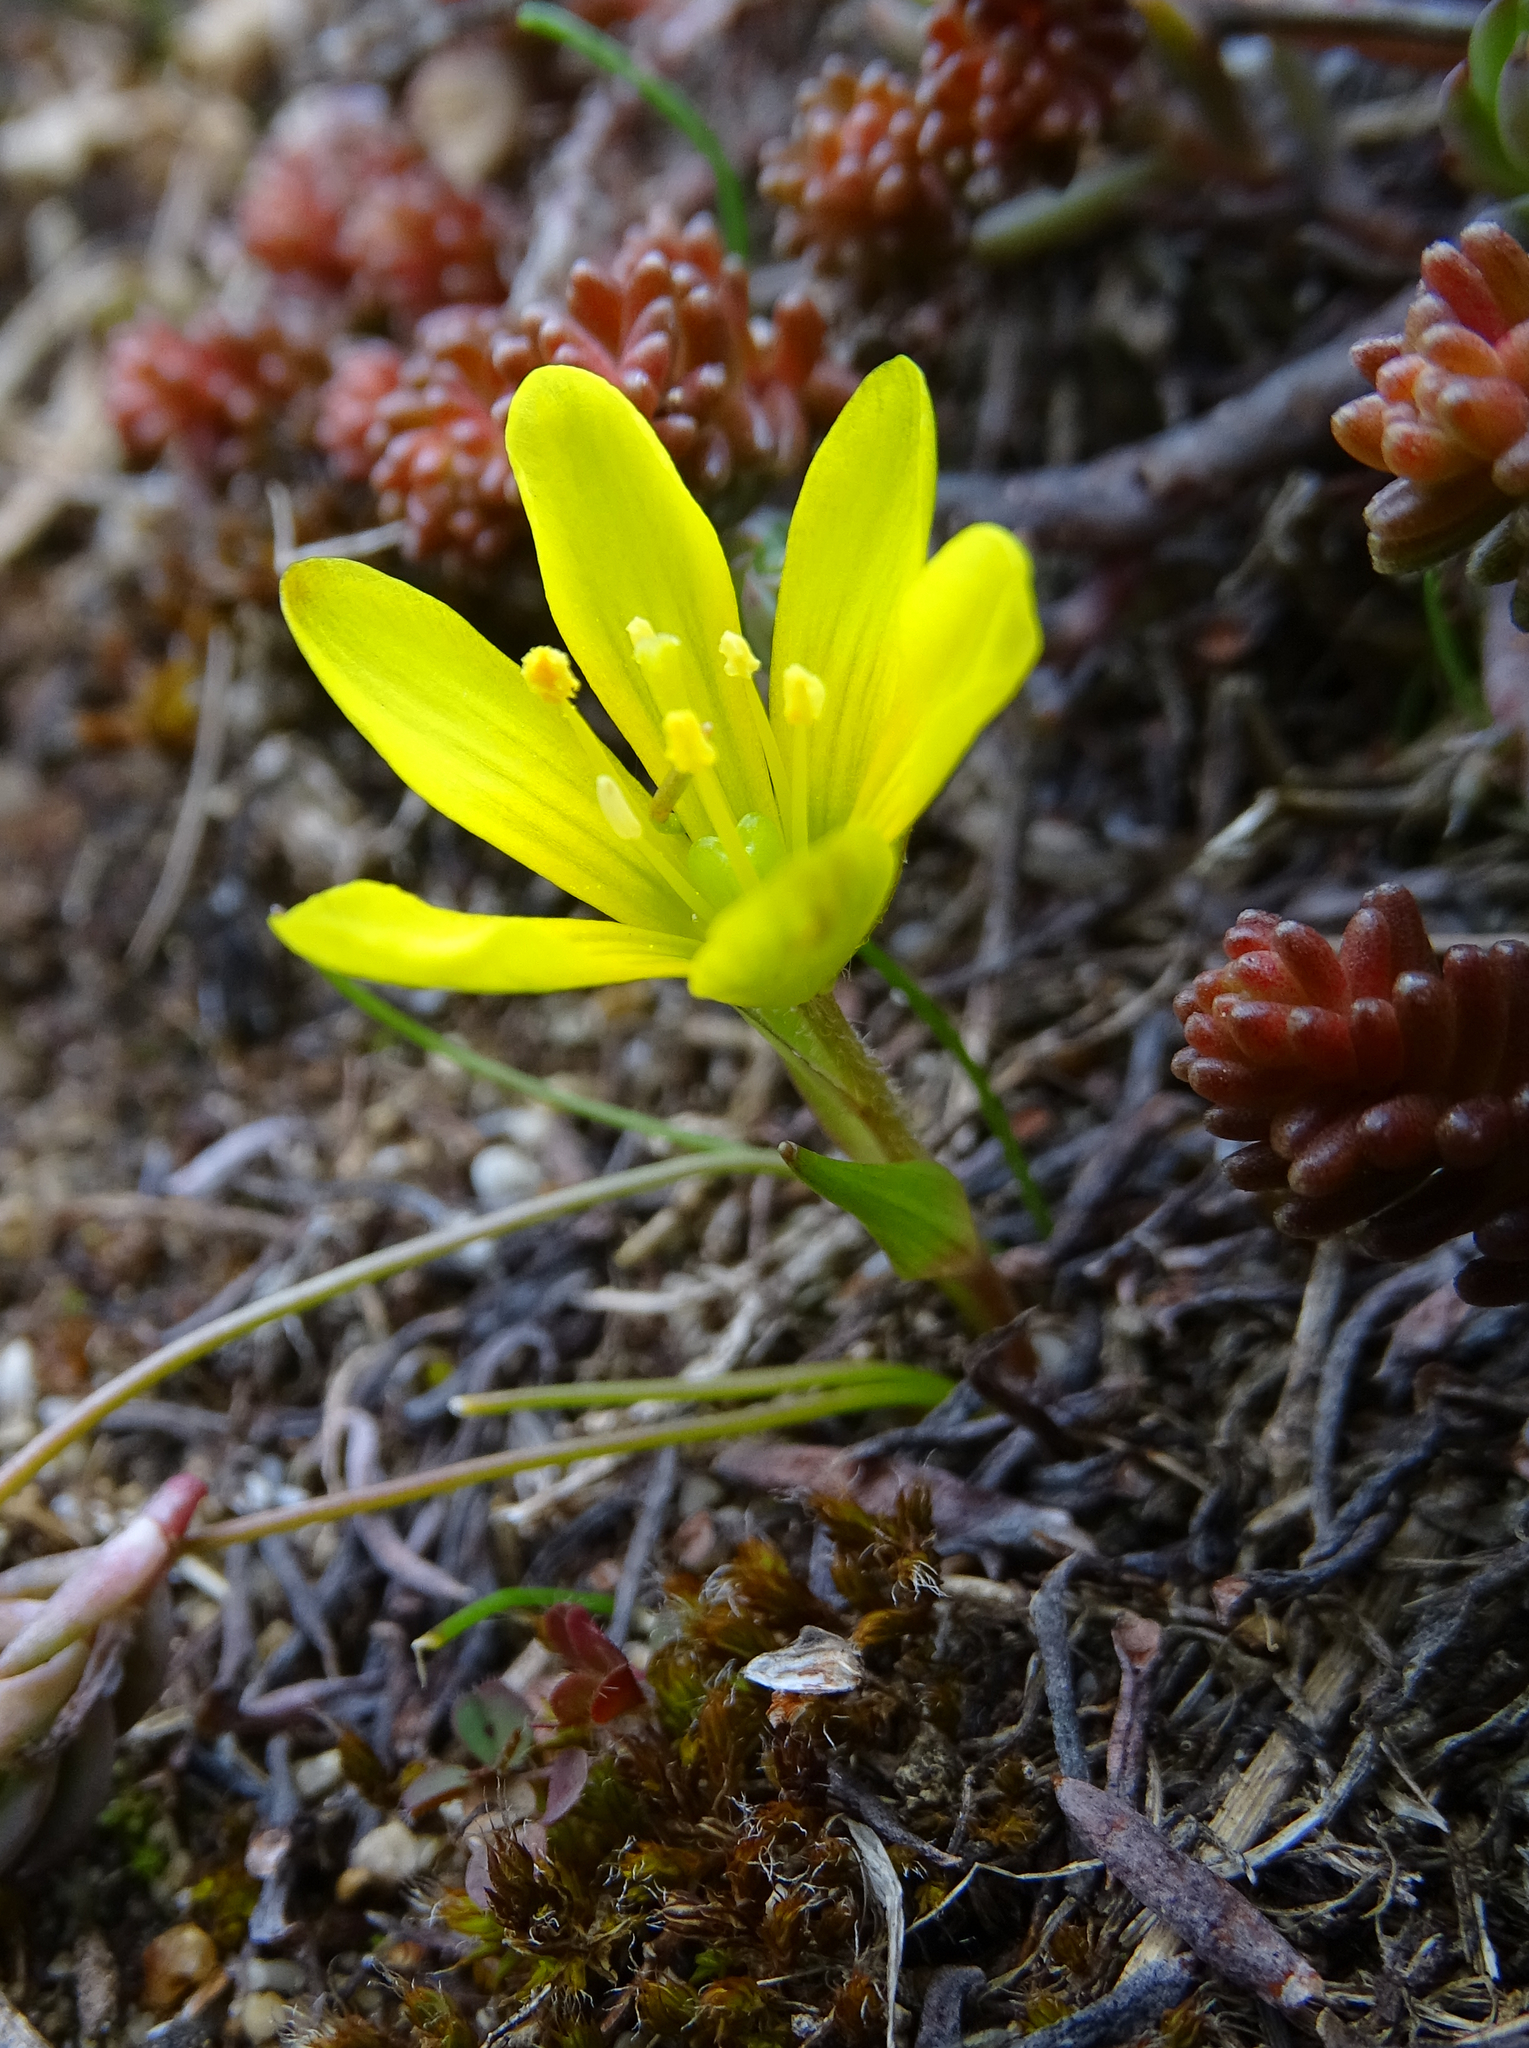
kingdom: Plantae
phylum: Tracheophyta
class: Liliopsida
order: Liliales
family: Liliaceae
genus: Gagea
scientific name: Gagea bohemica
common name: Early star-of-bethlehem
